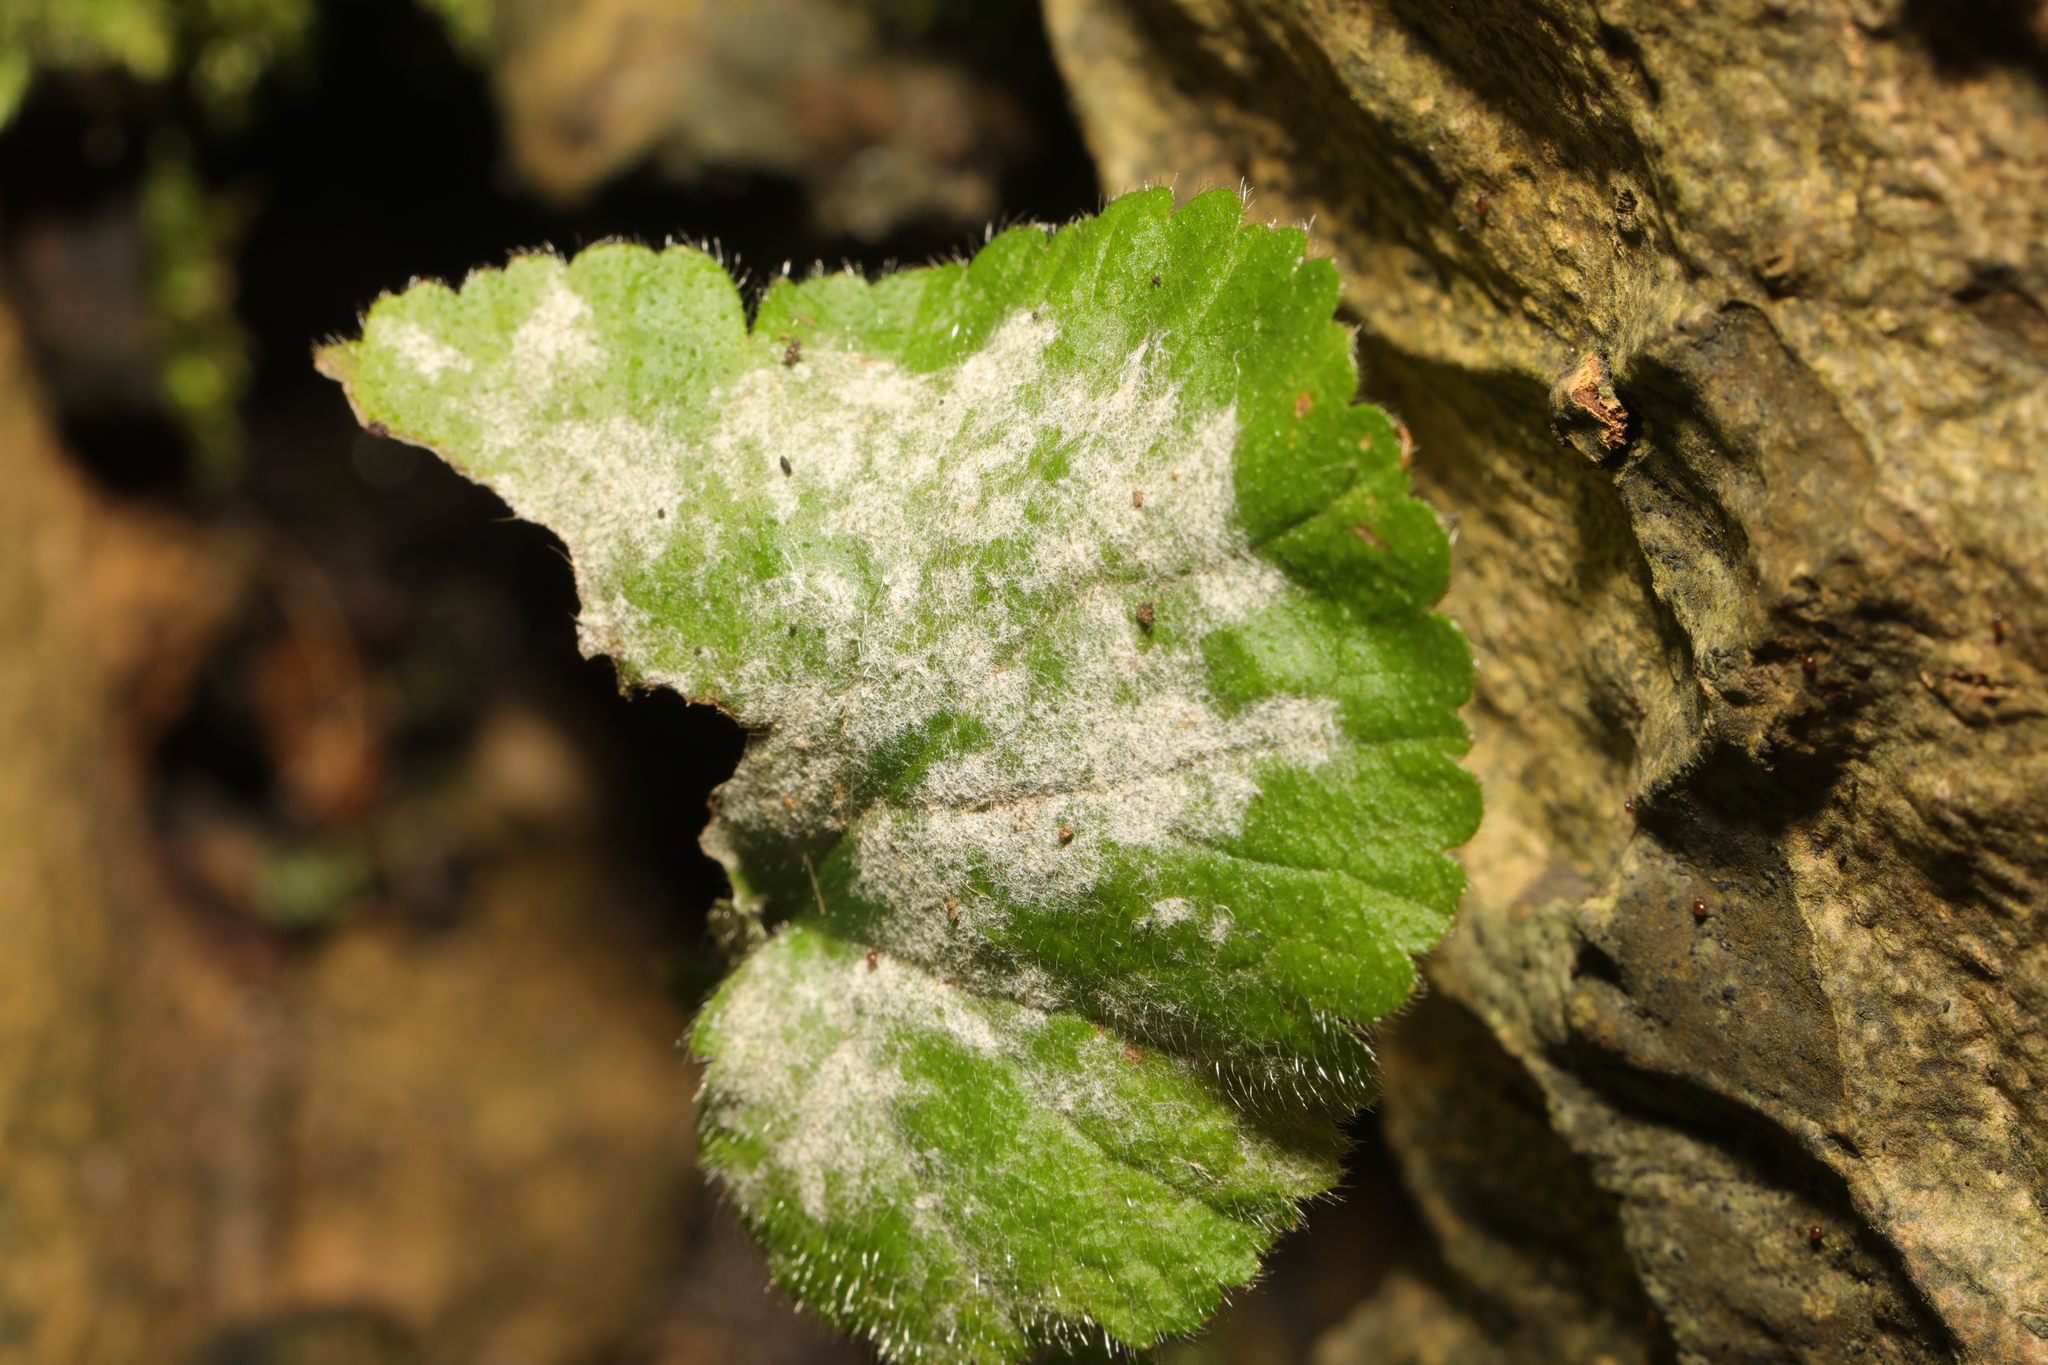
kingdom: Fungi
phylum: Ascomycota
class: Leotiomycetes
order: Helotiales
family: Erysiphaceae
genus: Podosphaera
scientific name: Podosphaera aphanis
